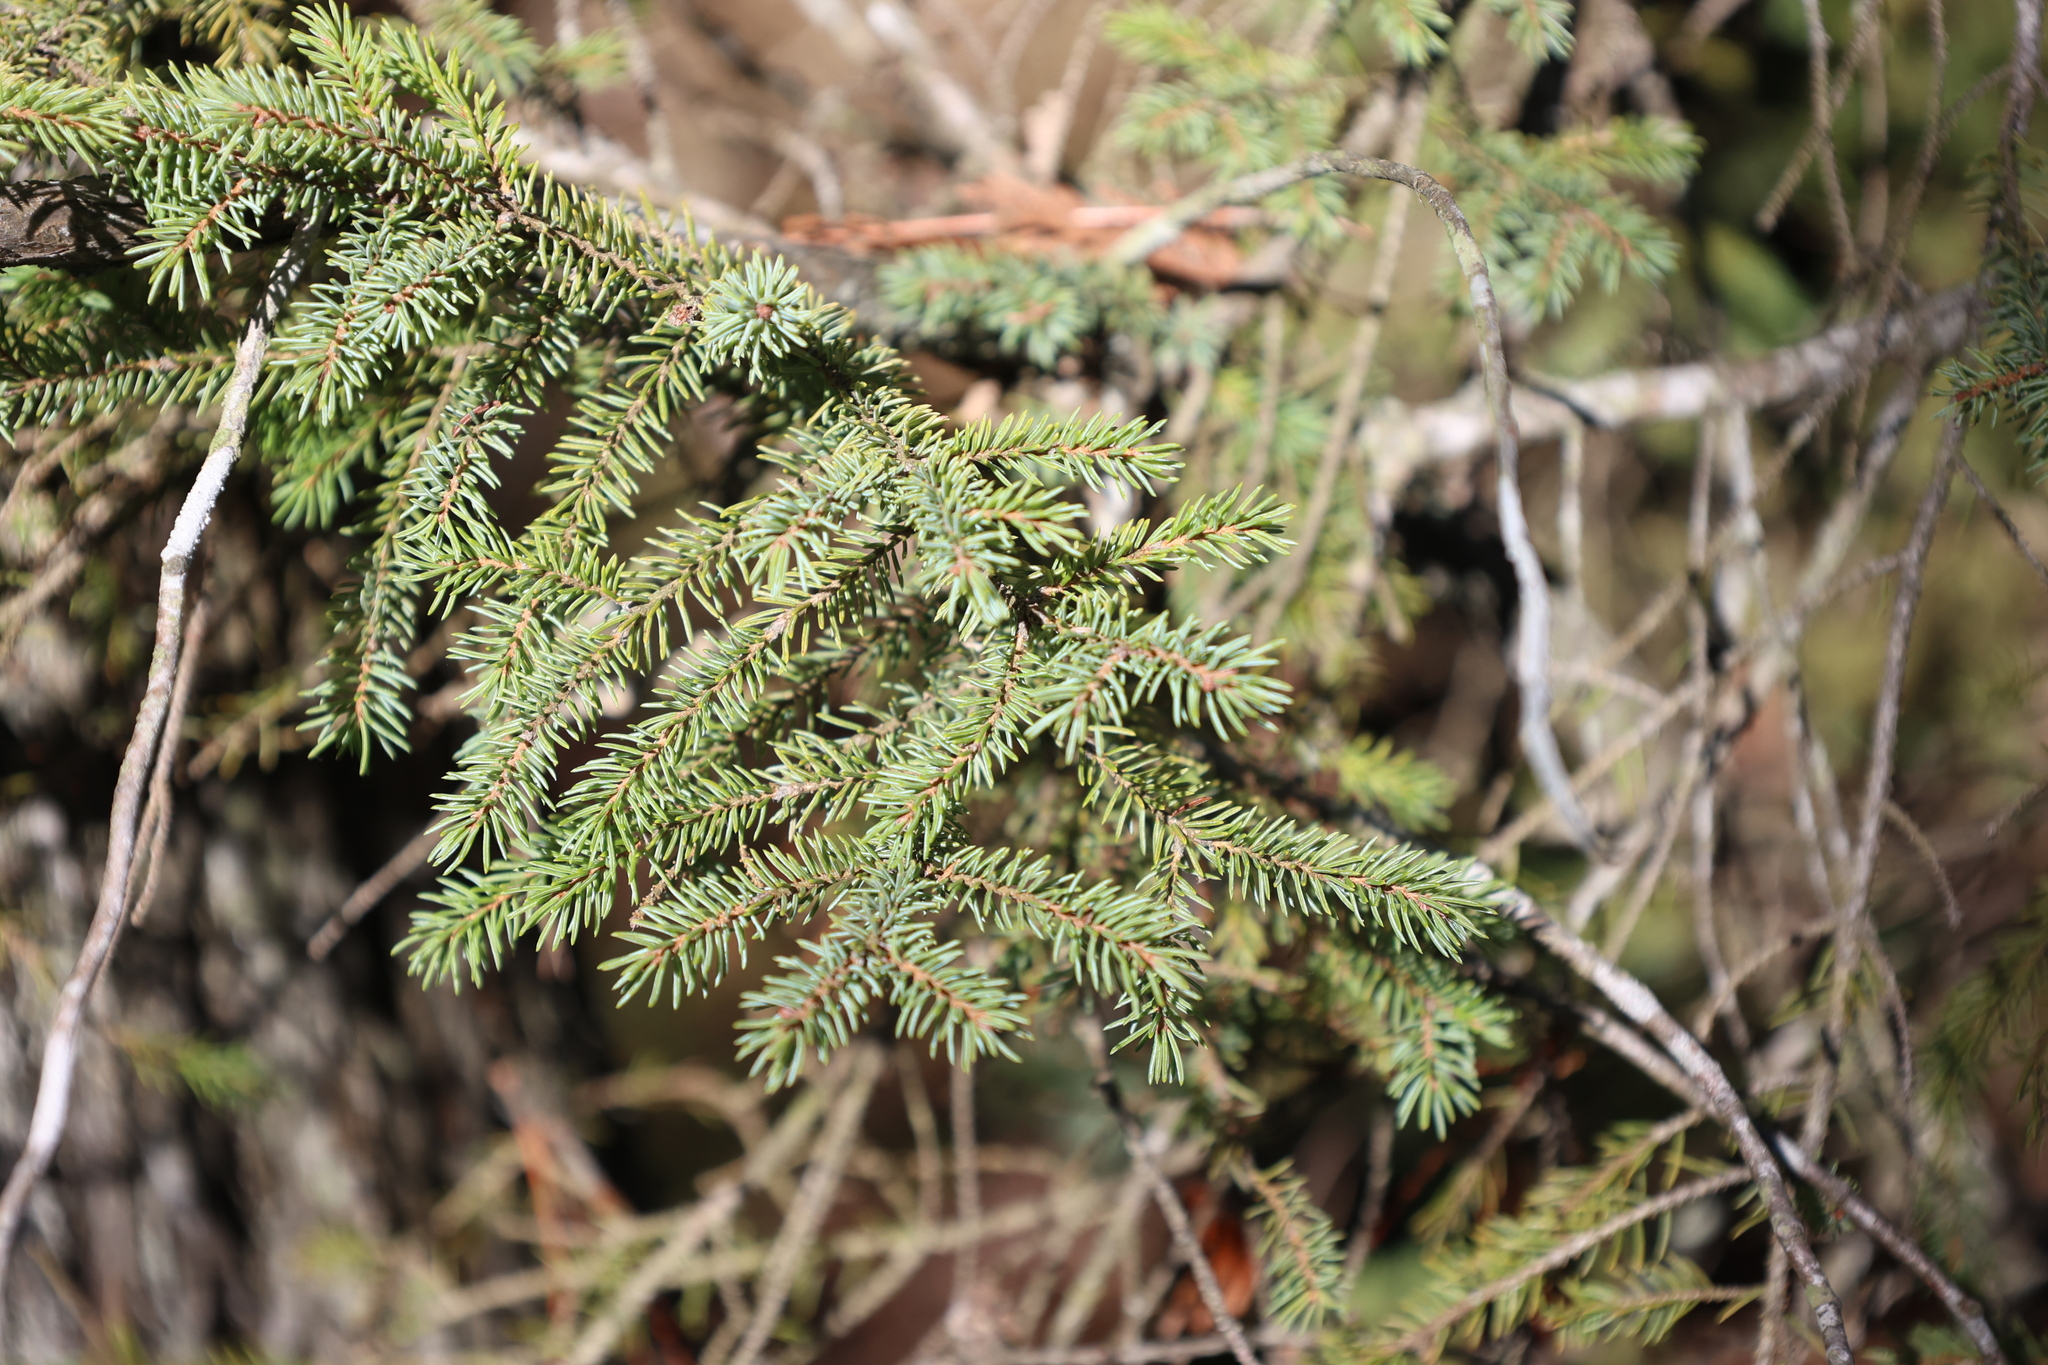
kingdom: Plantae
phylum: Tracheophyta
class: Pinopsida
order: Pinales
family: Pinaceae
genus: Picea
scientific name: Picea mariana
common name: Black spruce
